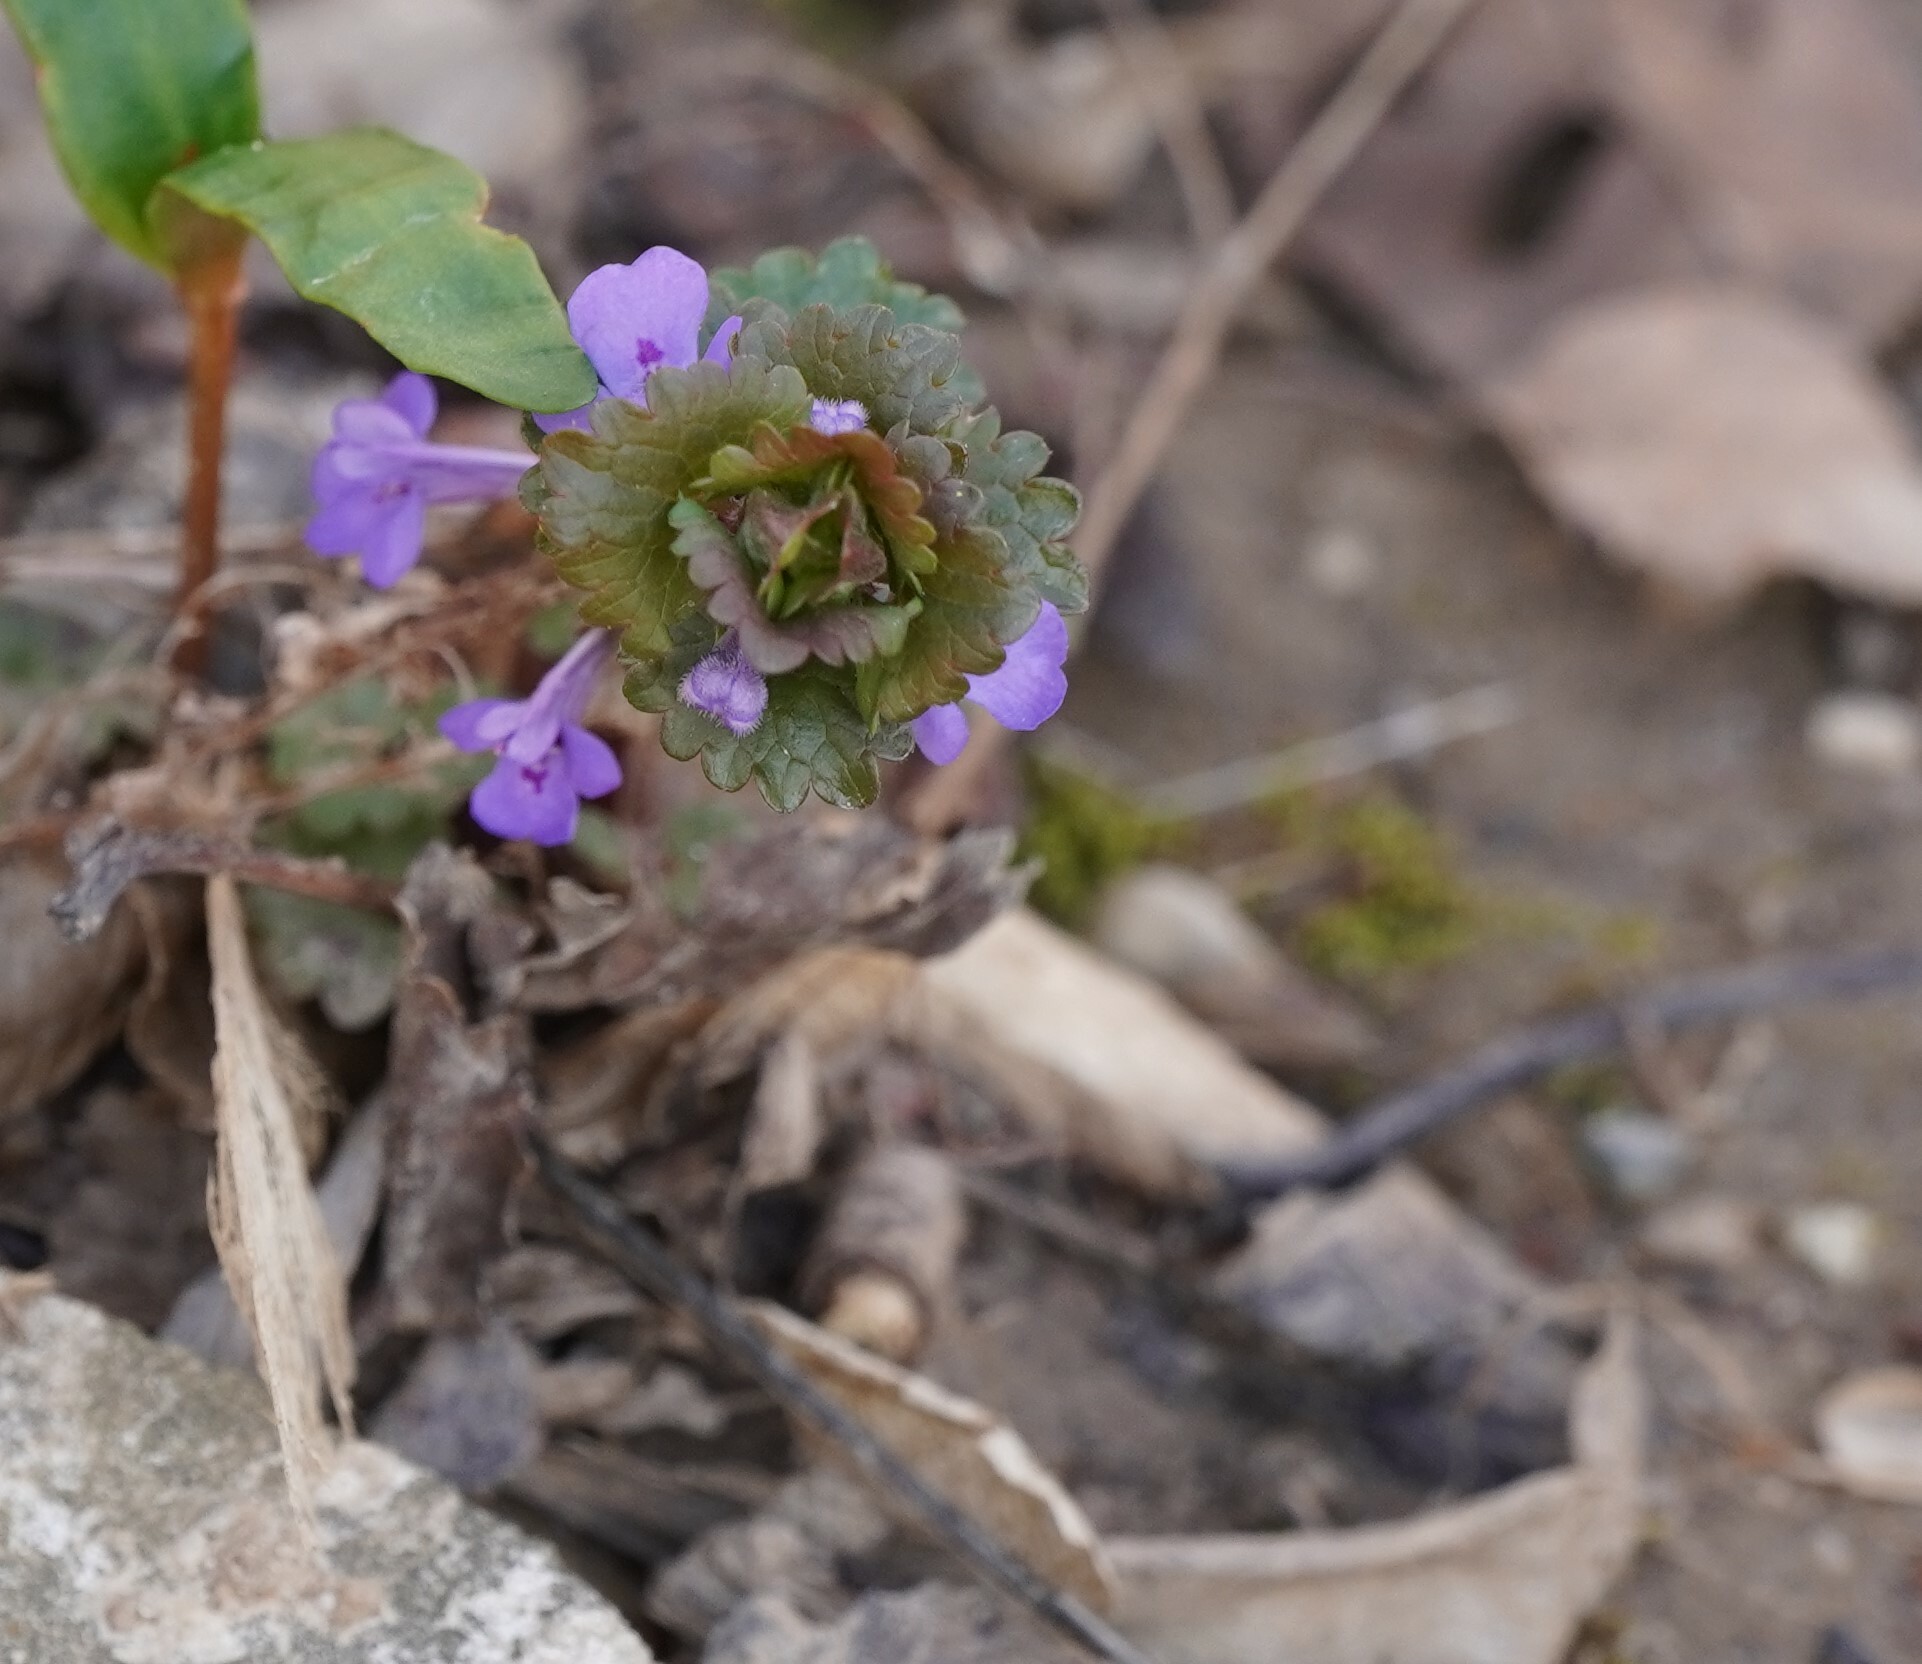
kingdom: Plantae
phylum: Tracheophyta
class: Magnoliopsida
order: Lamiales
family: Lamiaceae
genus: Glechoma
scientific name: Glechoma hederacea
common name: Ground ivy
